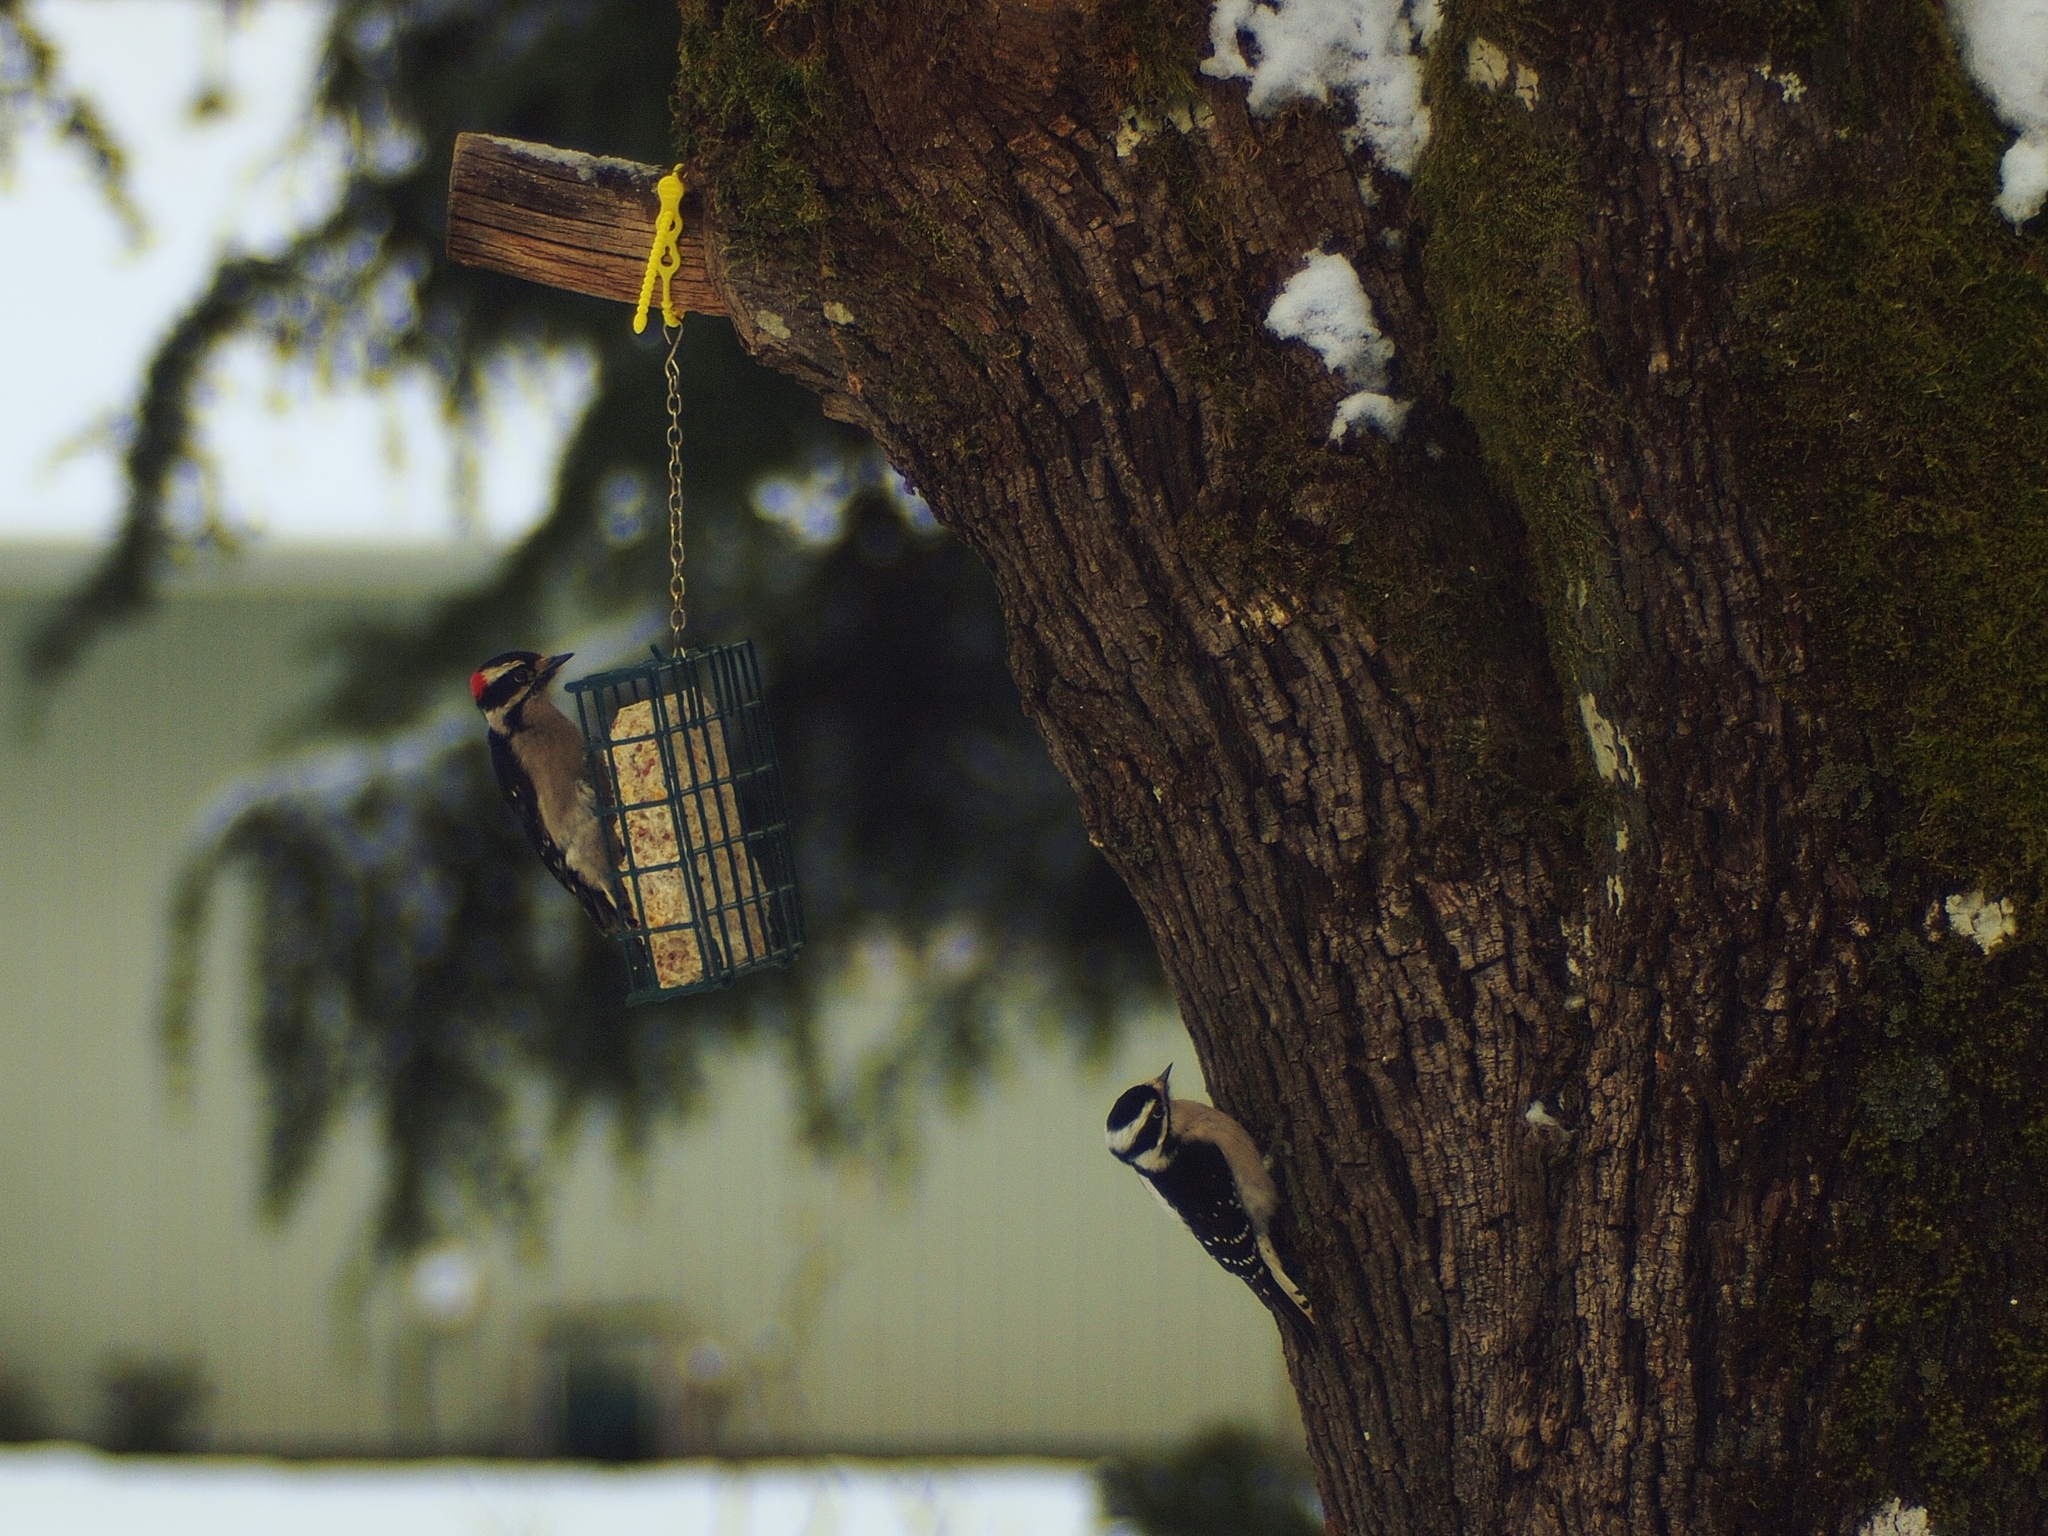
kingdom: Animalia
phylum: Chordata
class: Aves
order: Piciformes
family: Picidae
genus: Dryobates
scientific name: Dryobates pubescens
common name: Downy woodpecker
